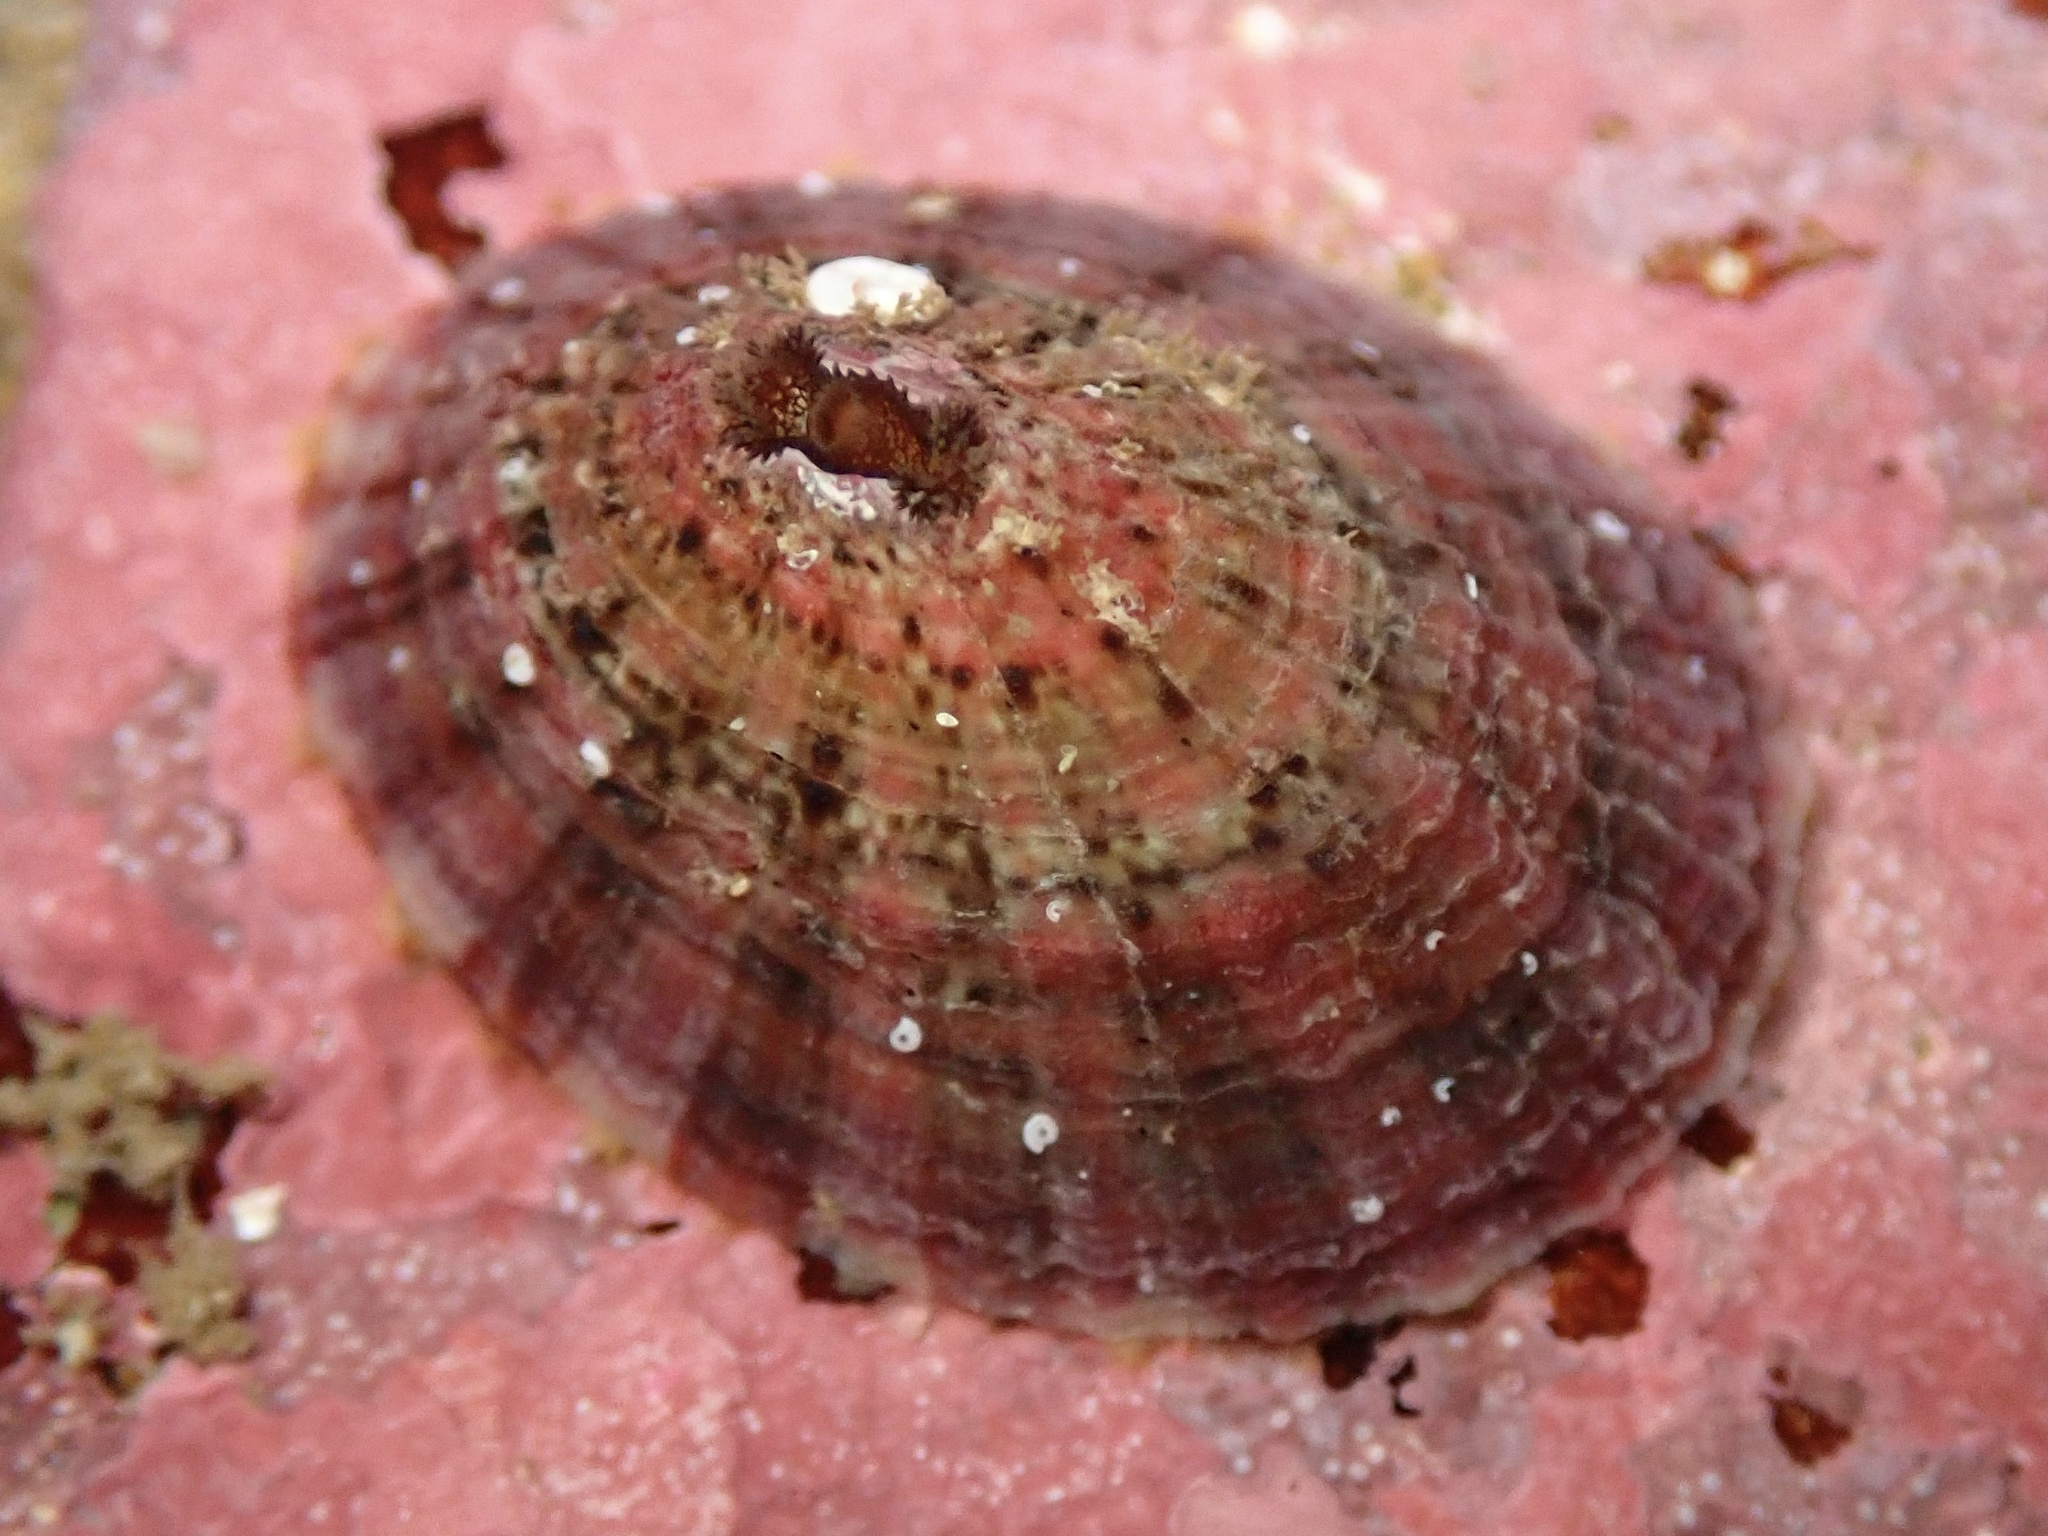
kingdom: Animalia
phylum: Mollusca
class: Gastropoda
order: Lepetellida
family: Fissurellidae
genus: Fissurella
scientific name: Fissurella volcano
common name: Volcano keyhole limpet
